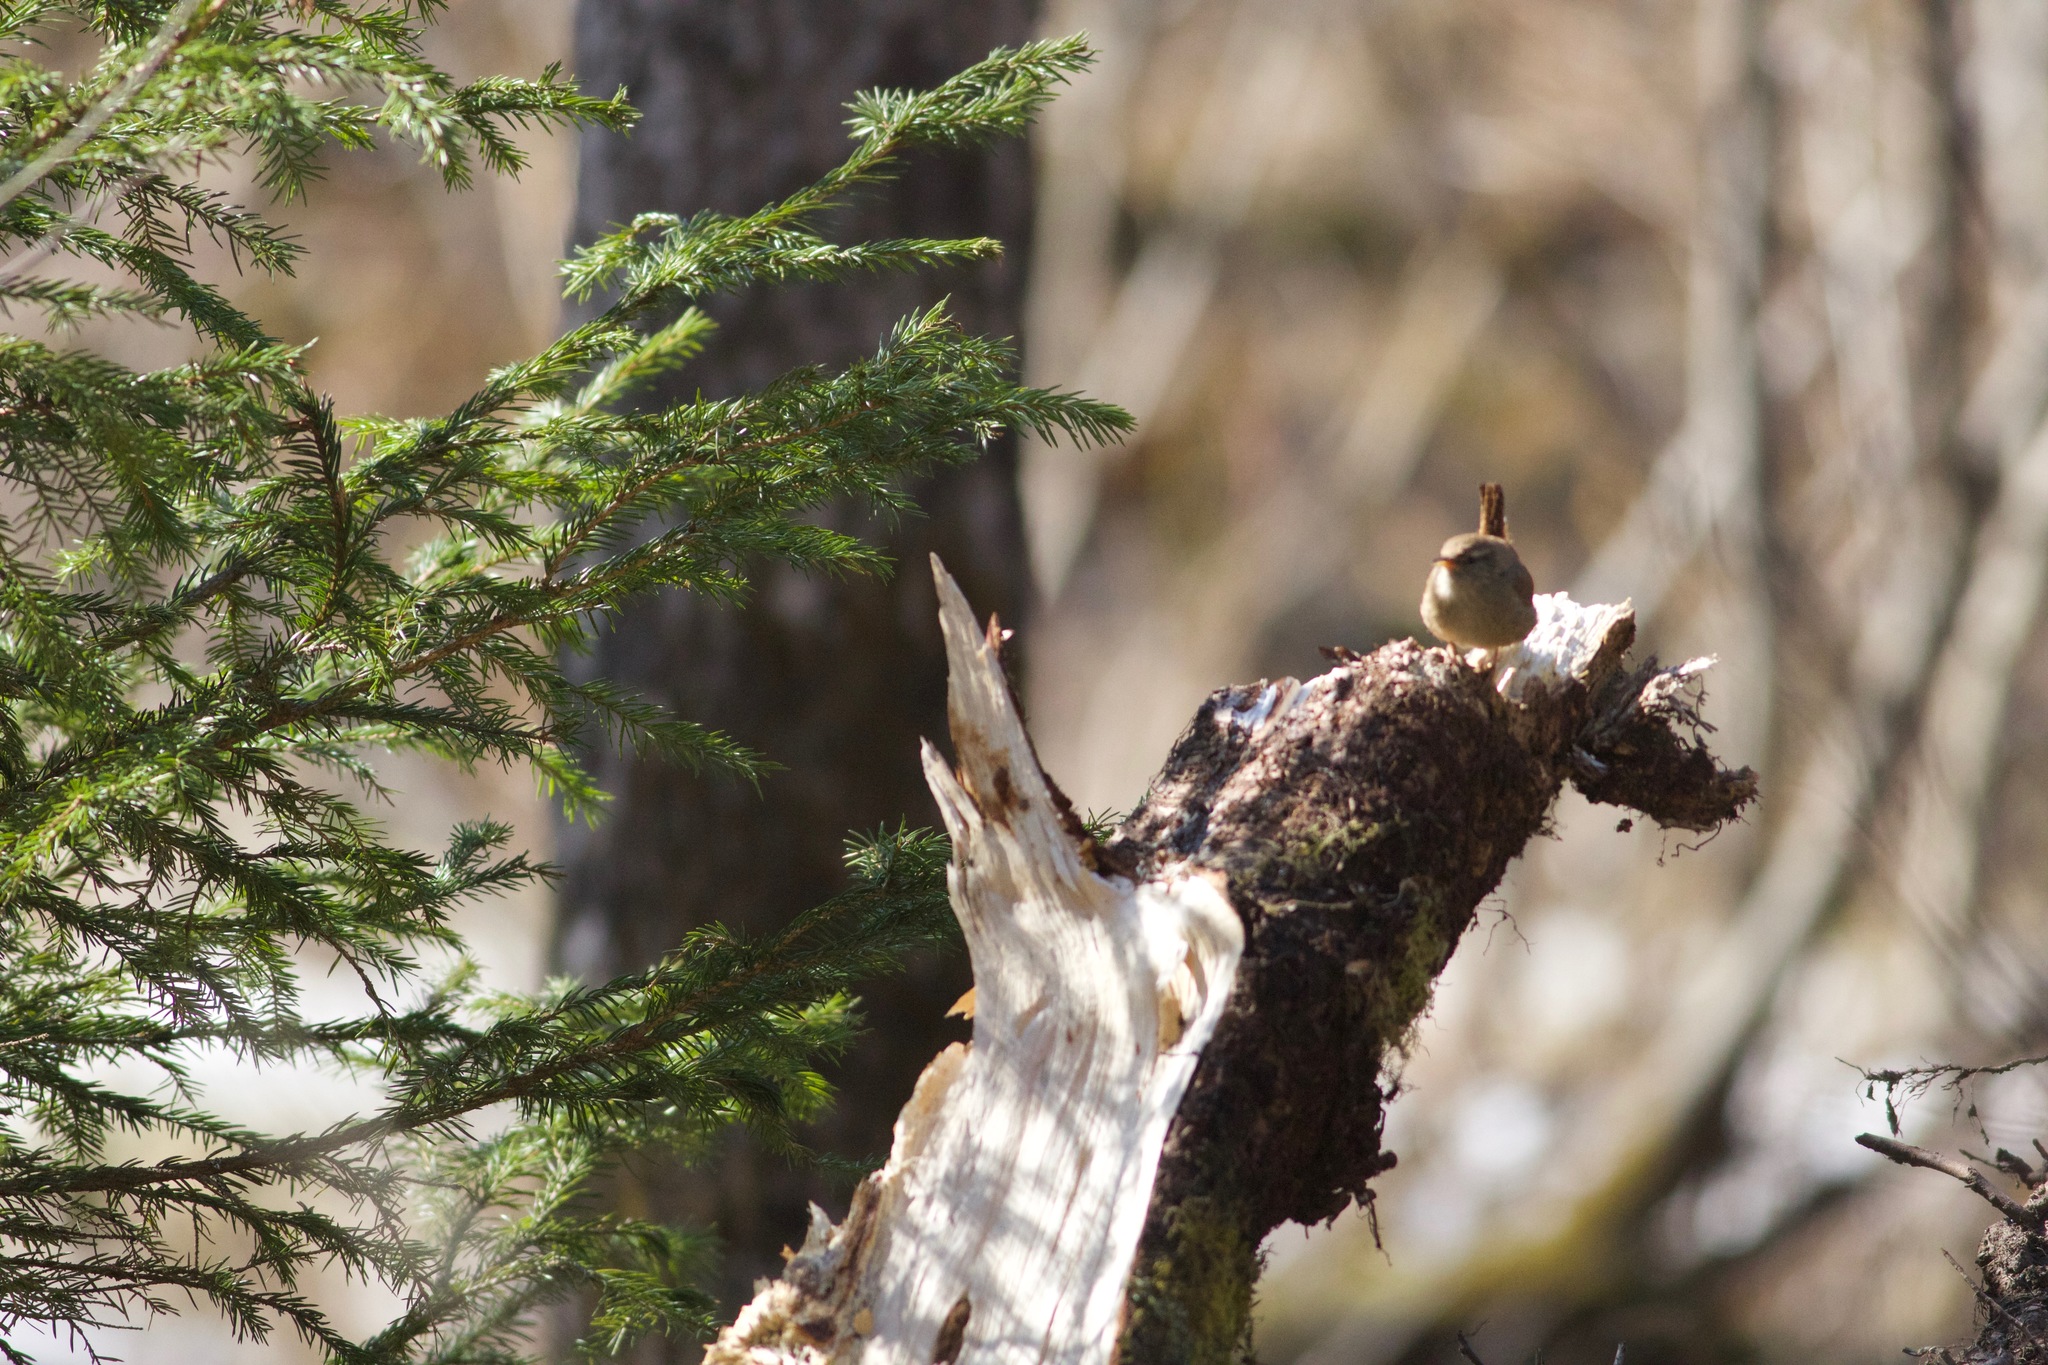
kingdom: Animalia
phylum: Chordata
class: Aves
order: Passeriformes
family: Troglodytidae
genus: Troglodytes
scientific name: Troglodytes troglodytes
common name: Eurasian wren
